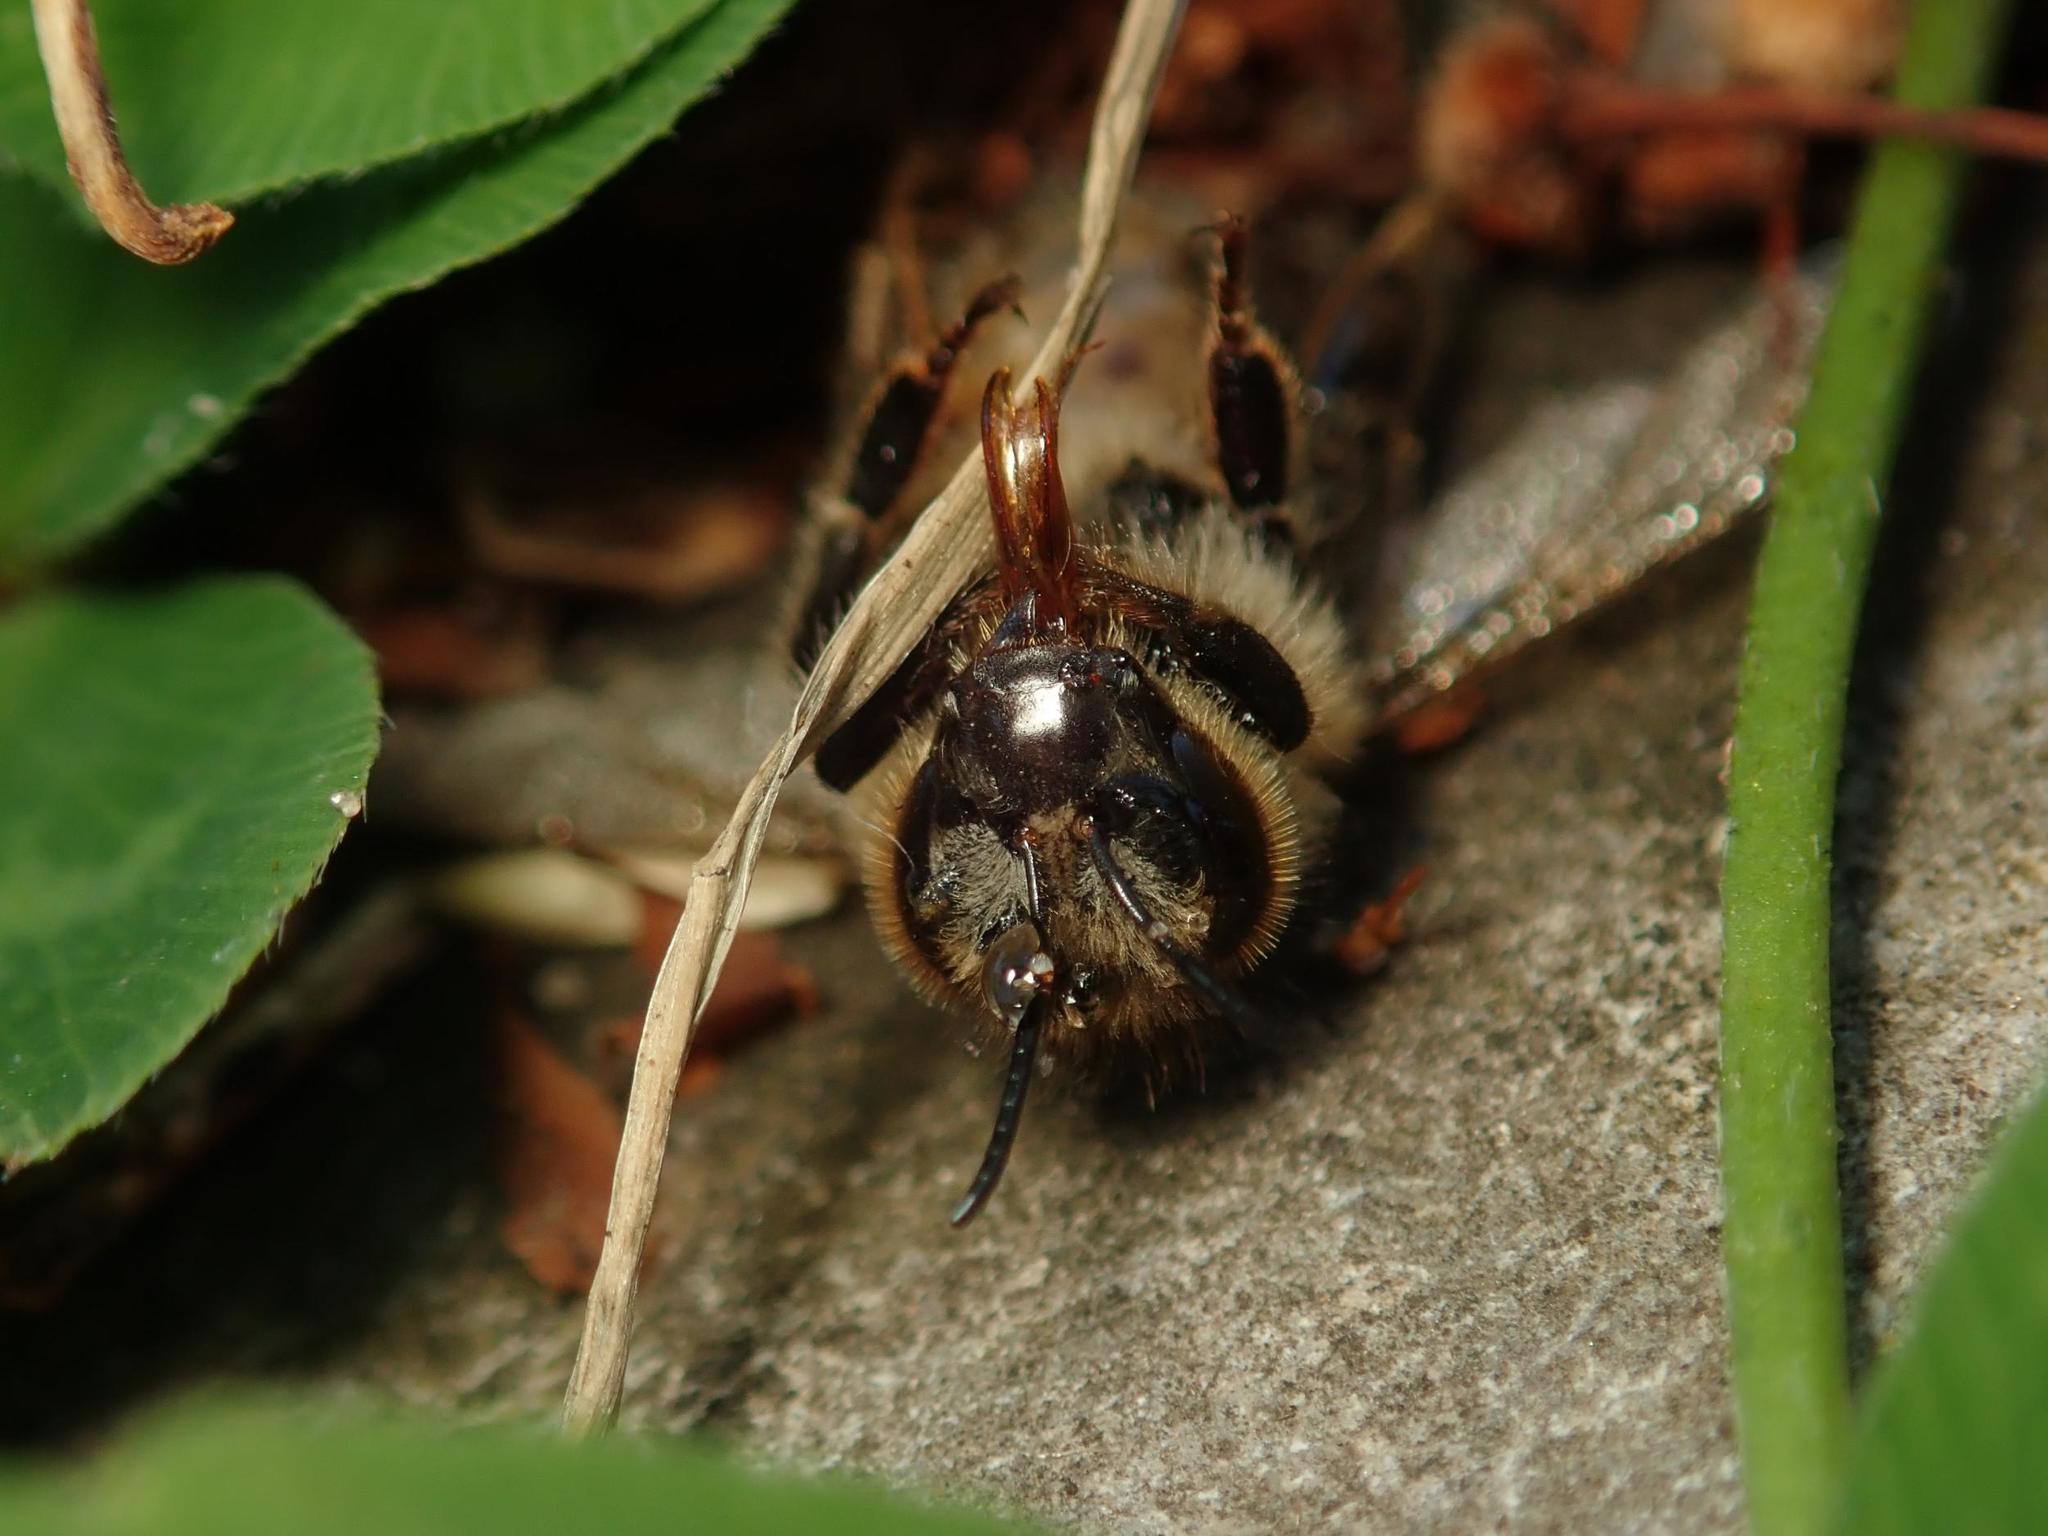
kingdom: Animalia
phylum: Arthropoda
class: Insecta
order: Hymenoptera
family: Apidae
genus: Apis
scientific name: Apis mellifera
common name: Honey bee
